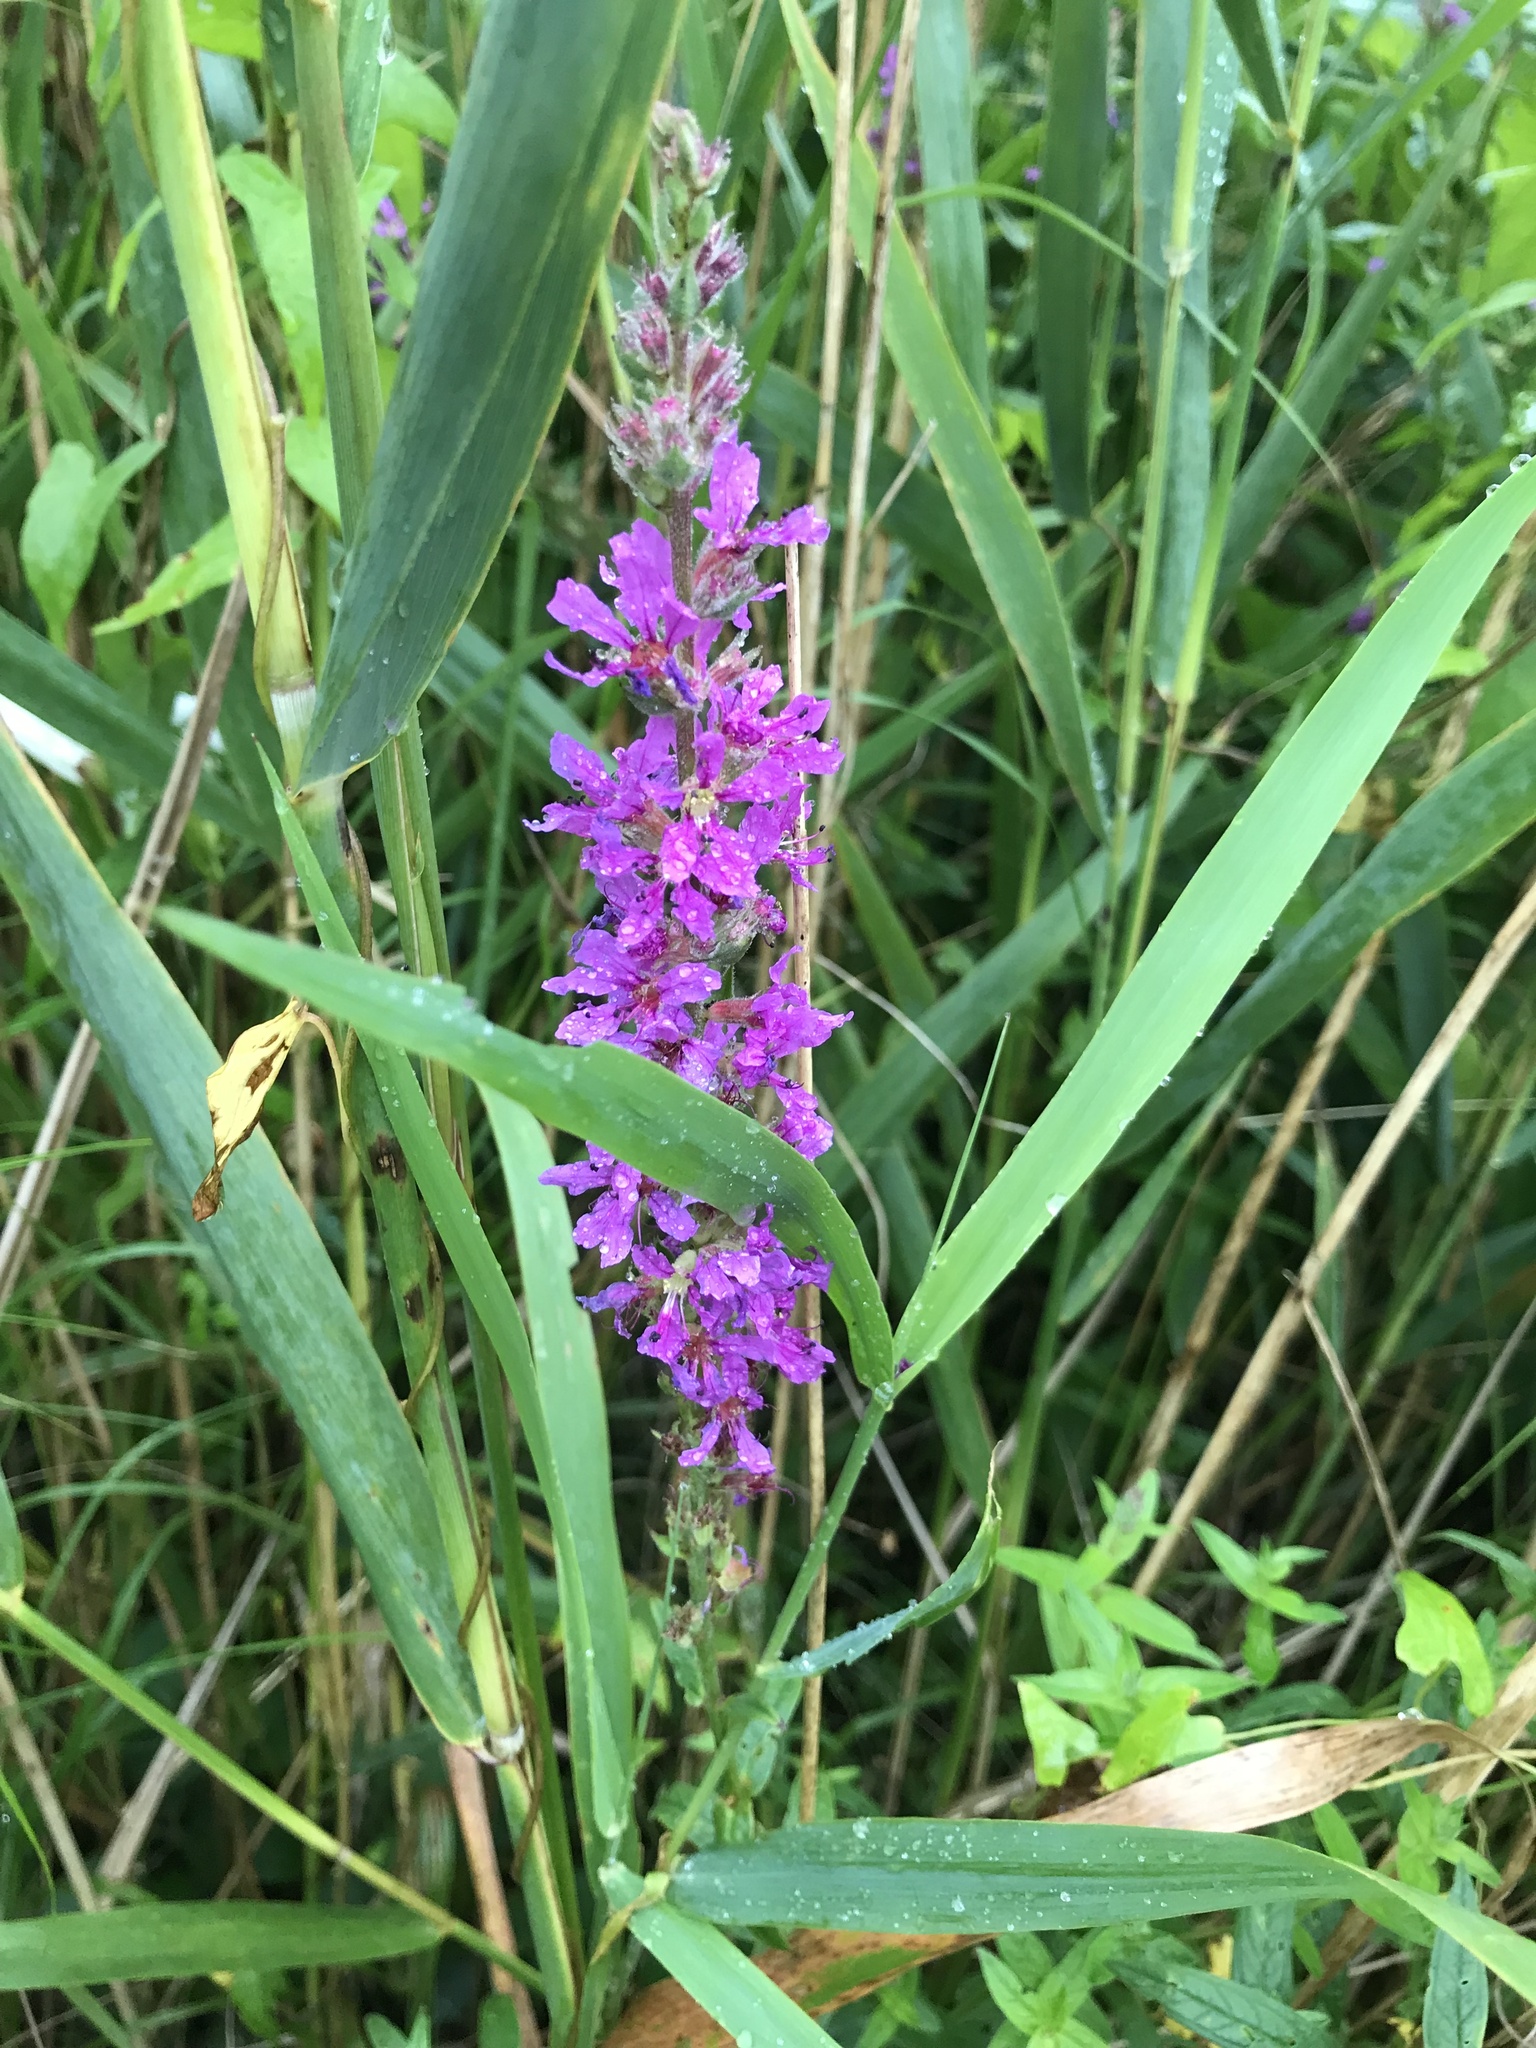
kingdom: Plantae
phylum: Tracheophyta
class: Magnoliopsida
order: Myrtales
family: Lythraceae
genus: Lythrum
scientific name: Lythrum salicaria
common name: Purple loosestrife
